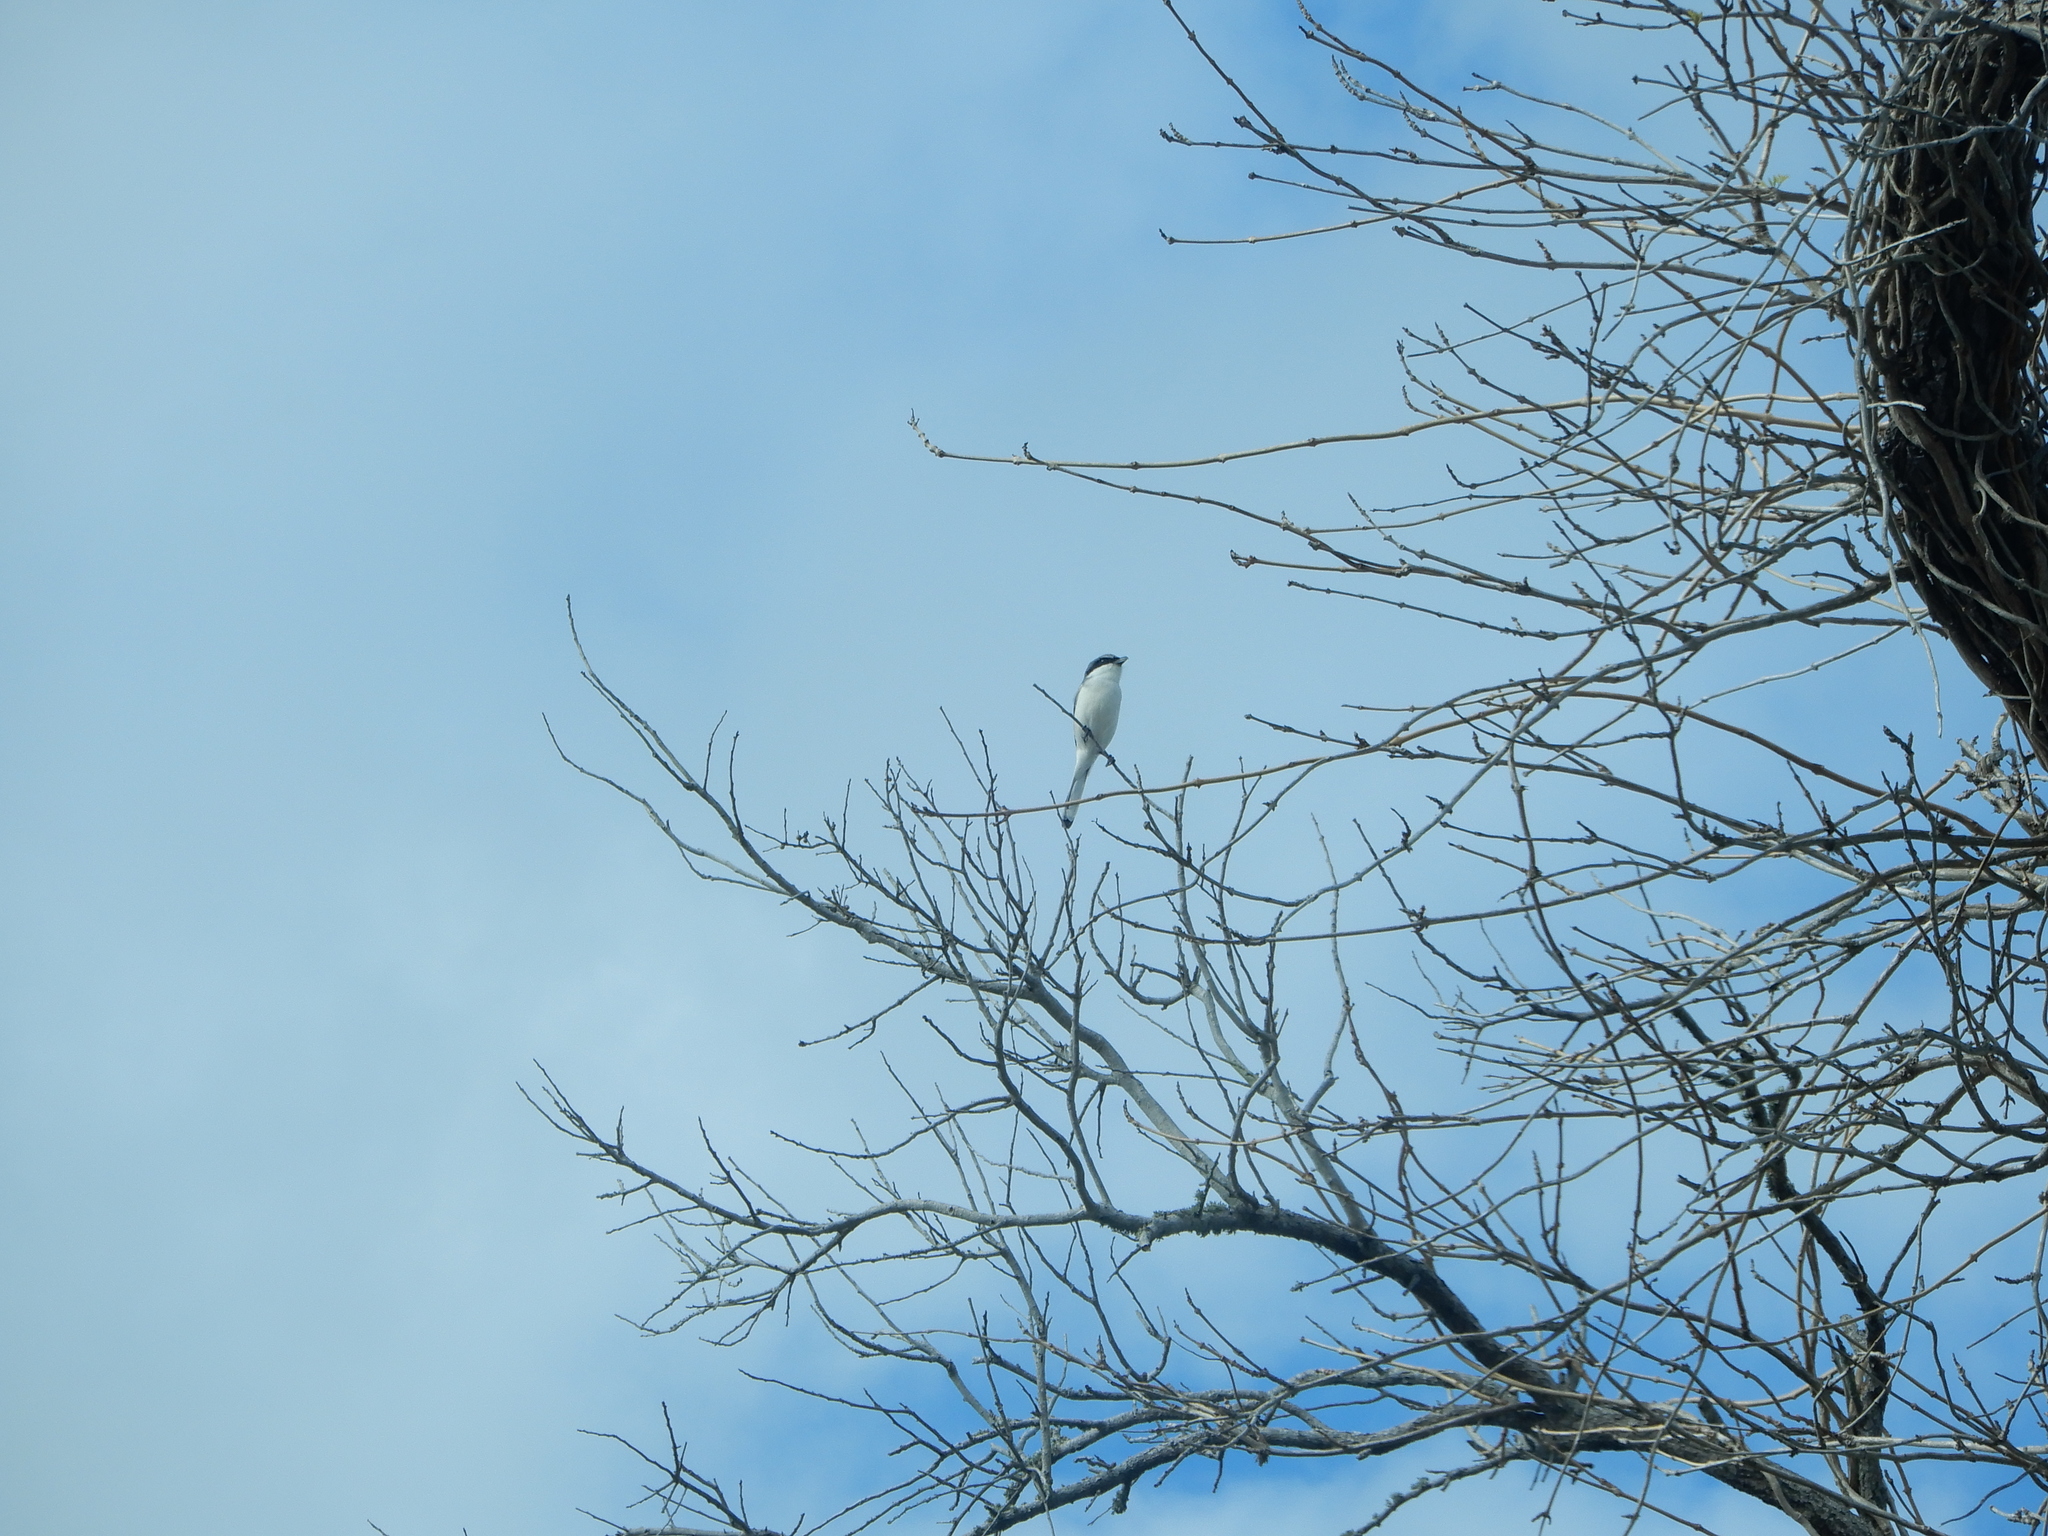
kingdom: Animalia
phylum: Chordata
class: Aves
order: Passeriformes
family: Laniidae
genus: Lanius
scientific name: Lanius ludovicianus
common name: Loggerhead shrike
